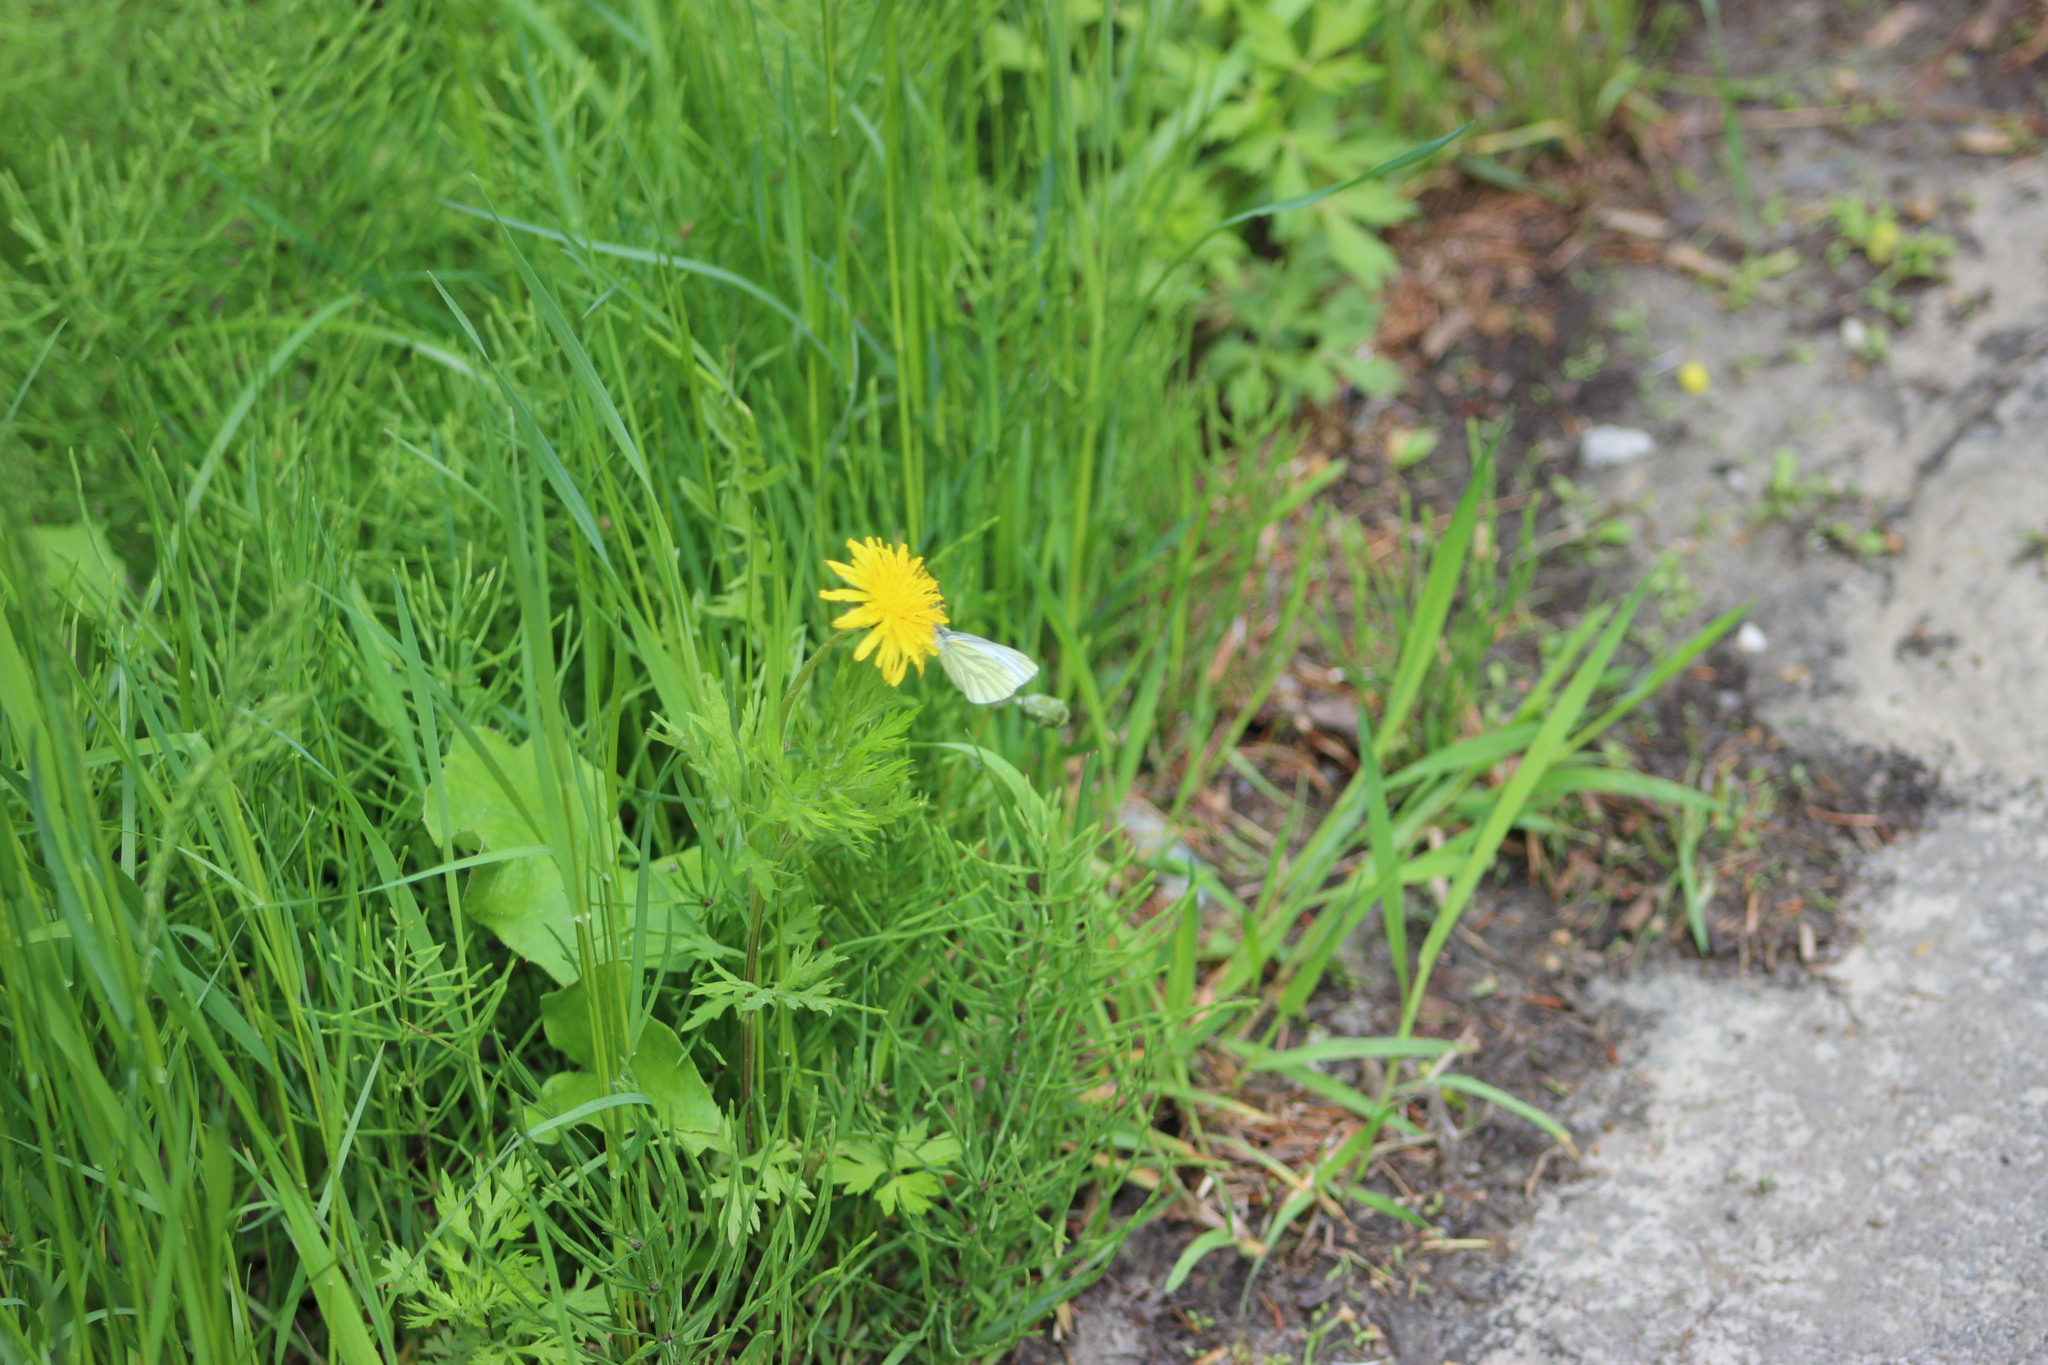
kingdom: Animalia
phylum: Arthropoda
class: Insecta
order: Lepidoptera
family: Pieridae
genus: Pieris
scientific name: Pieris napi
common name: Green-veined white
